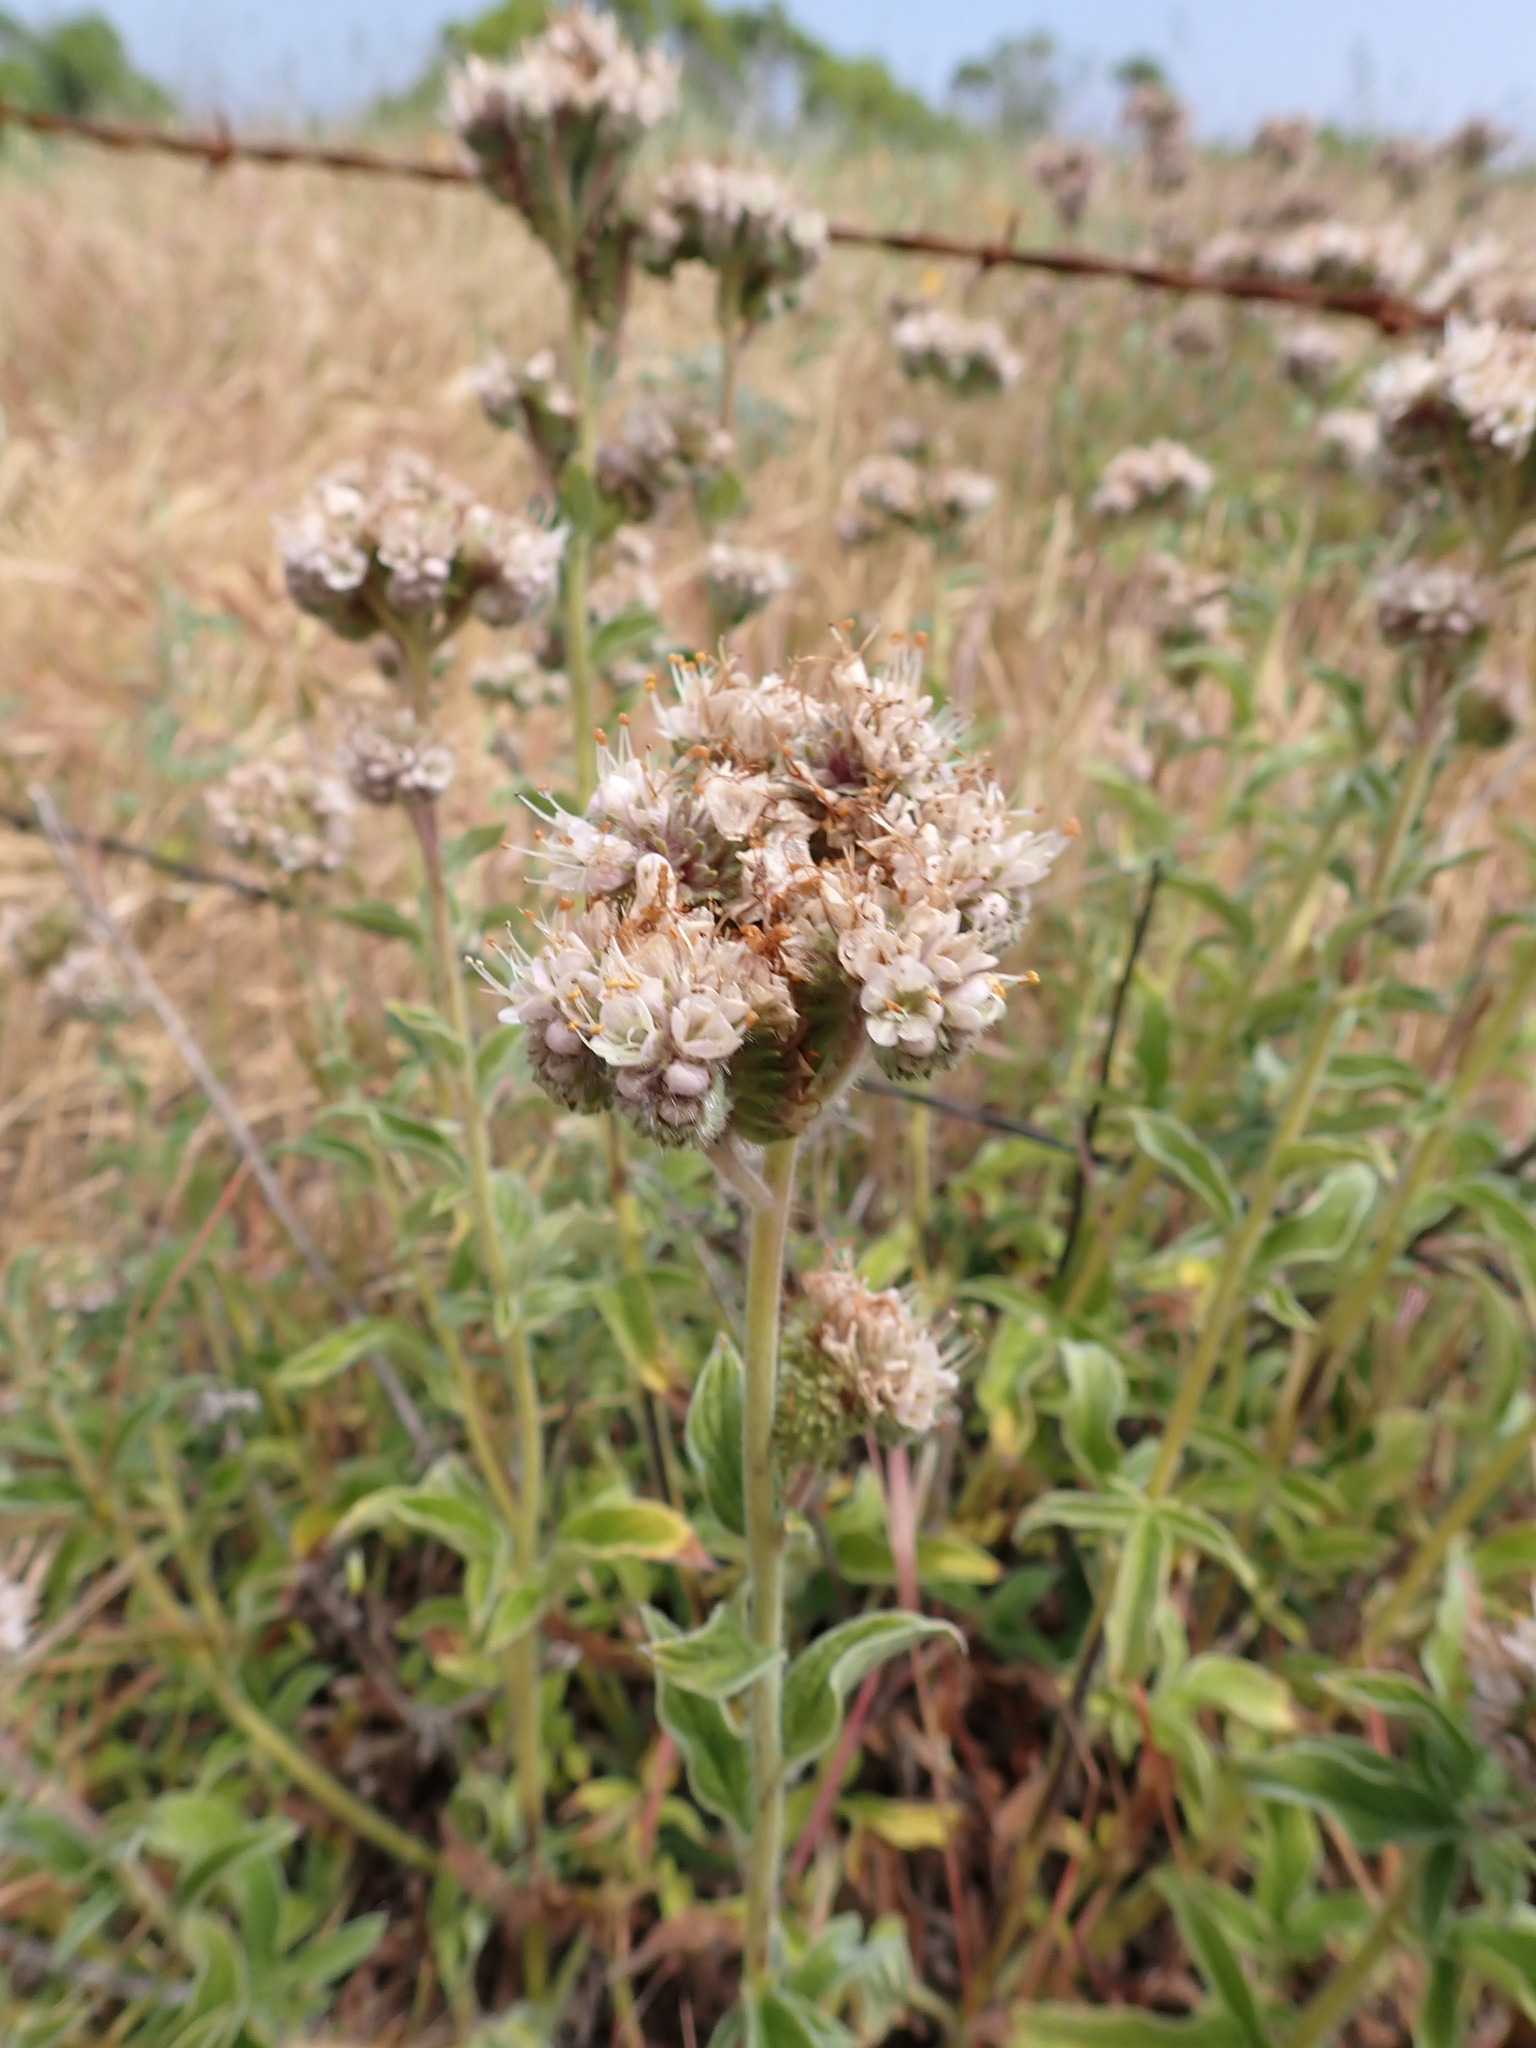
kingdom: Plantae
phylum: Tracheophyta
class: Magnoliopsida
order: Boraginales
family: Hydrophyllaceae
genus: Phacelia
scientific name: Phacelia californica
